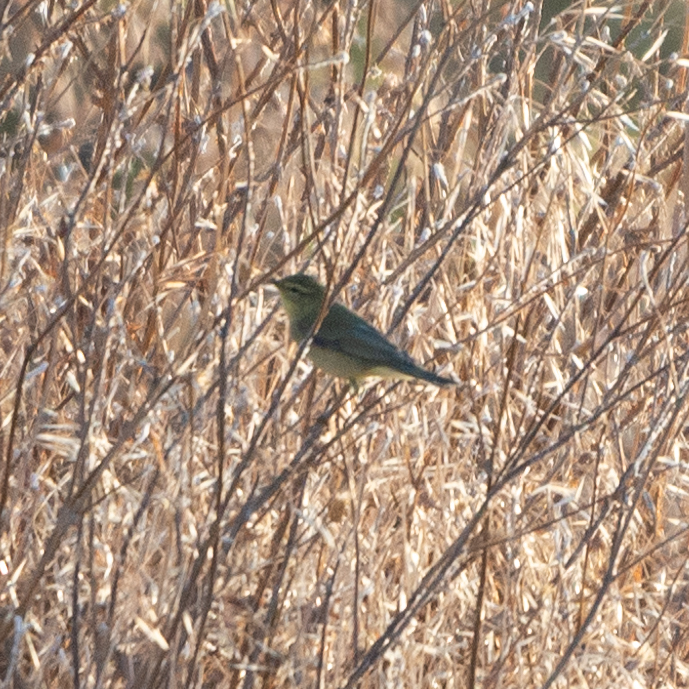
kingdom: Animalia
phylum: Chordata
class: Aves
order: Passeriformes
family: Phylloscopidae
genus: Phylloscopus
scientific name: Phylloscopus trochilus
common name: Willow warbler
